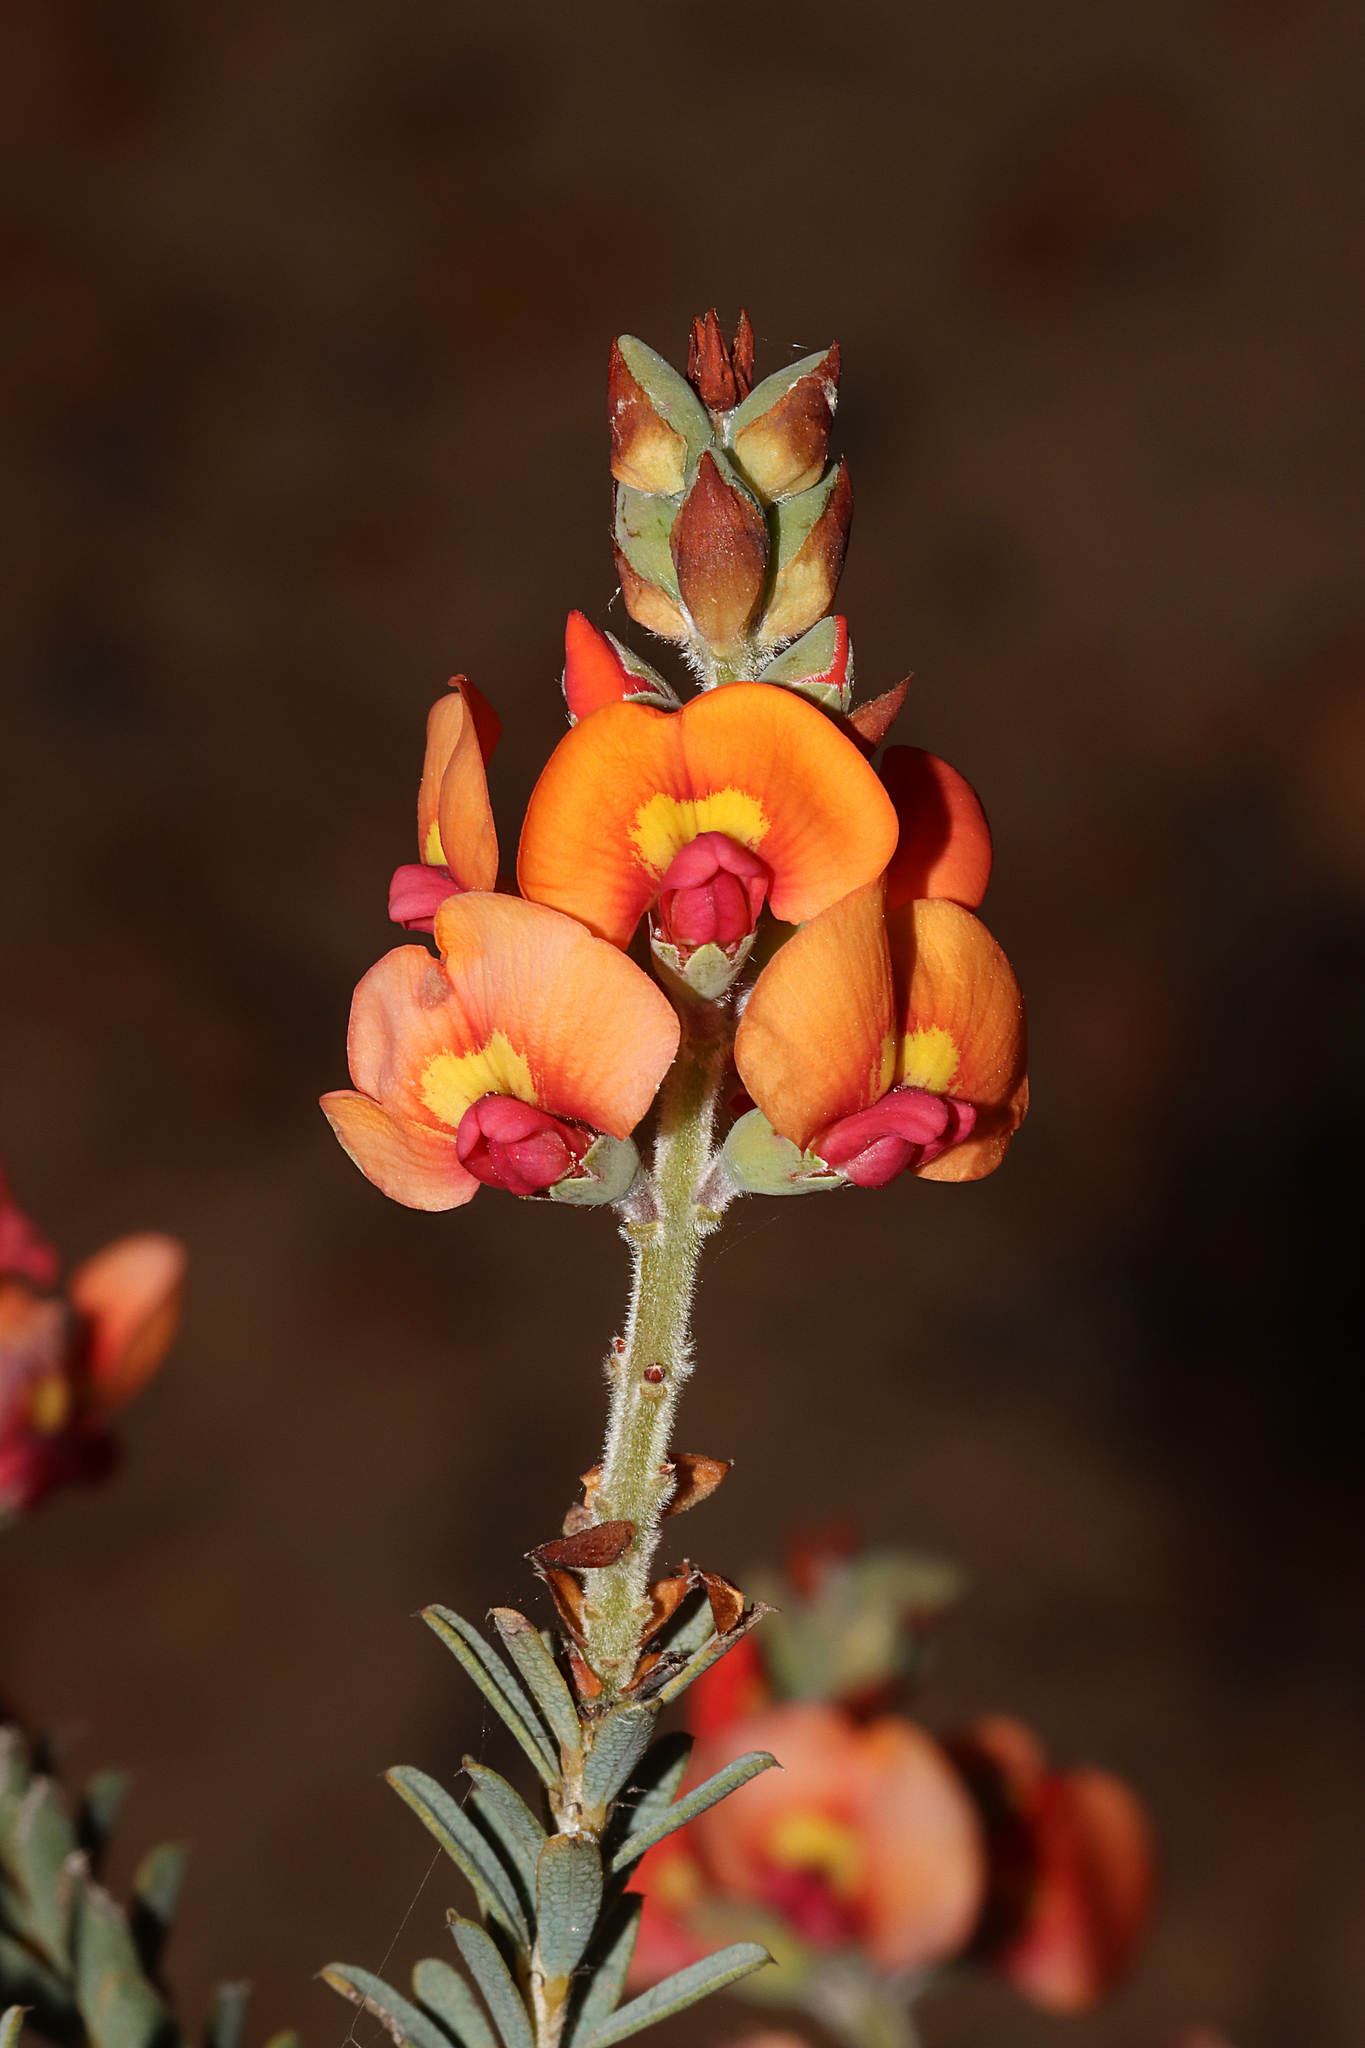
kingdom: Plantae
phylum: Tracheophyta
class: Magnoliopsida
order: Fabales
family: Fabaceae
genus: Gastrolobium
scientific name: Gastrolobium parvifolium
